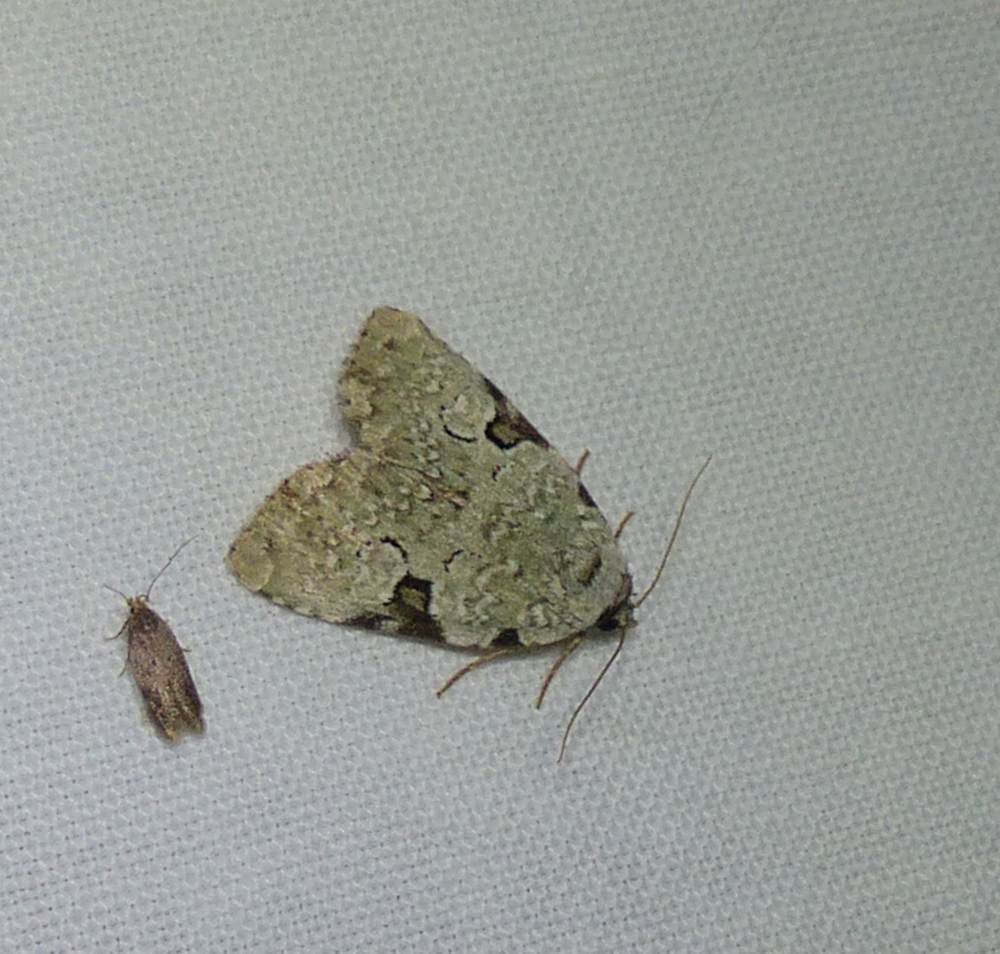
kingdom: Animalia
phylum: Arthropoda
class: Insecta
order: Lepidoptera
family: Noctuidae
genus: Leuconycta
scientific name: Leuconycta diphteroides
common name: Green leuconycta moth
